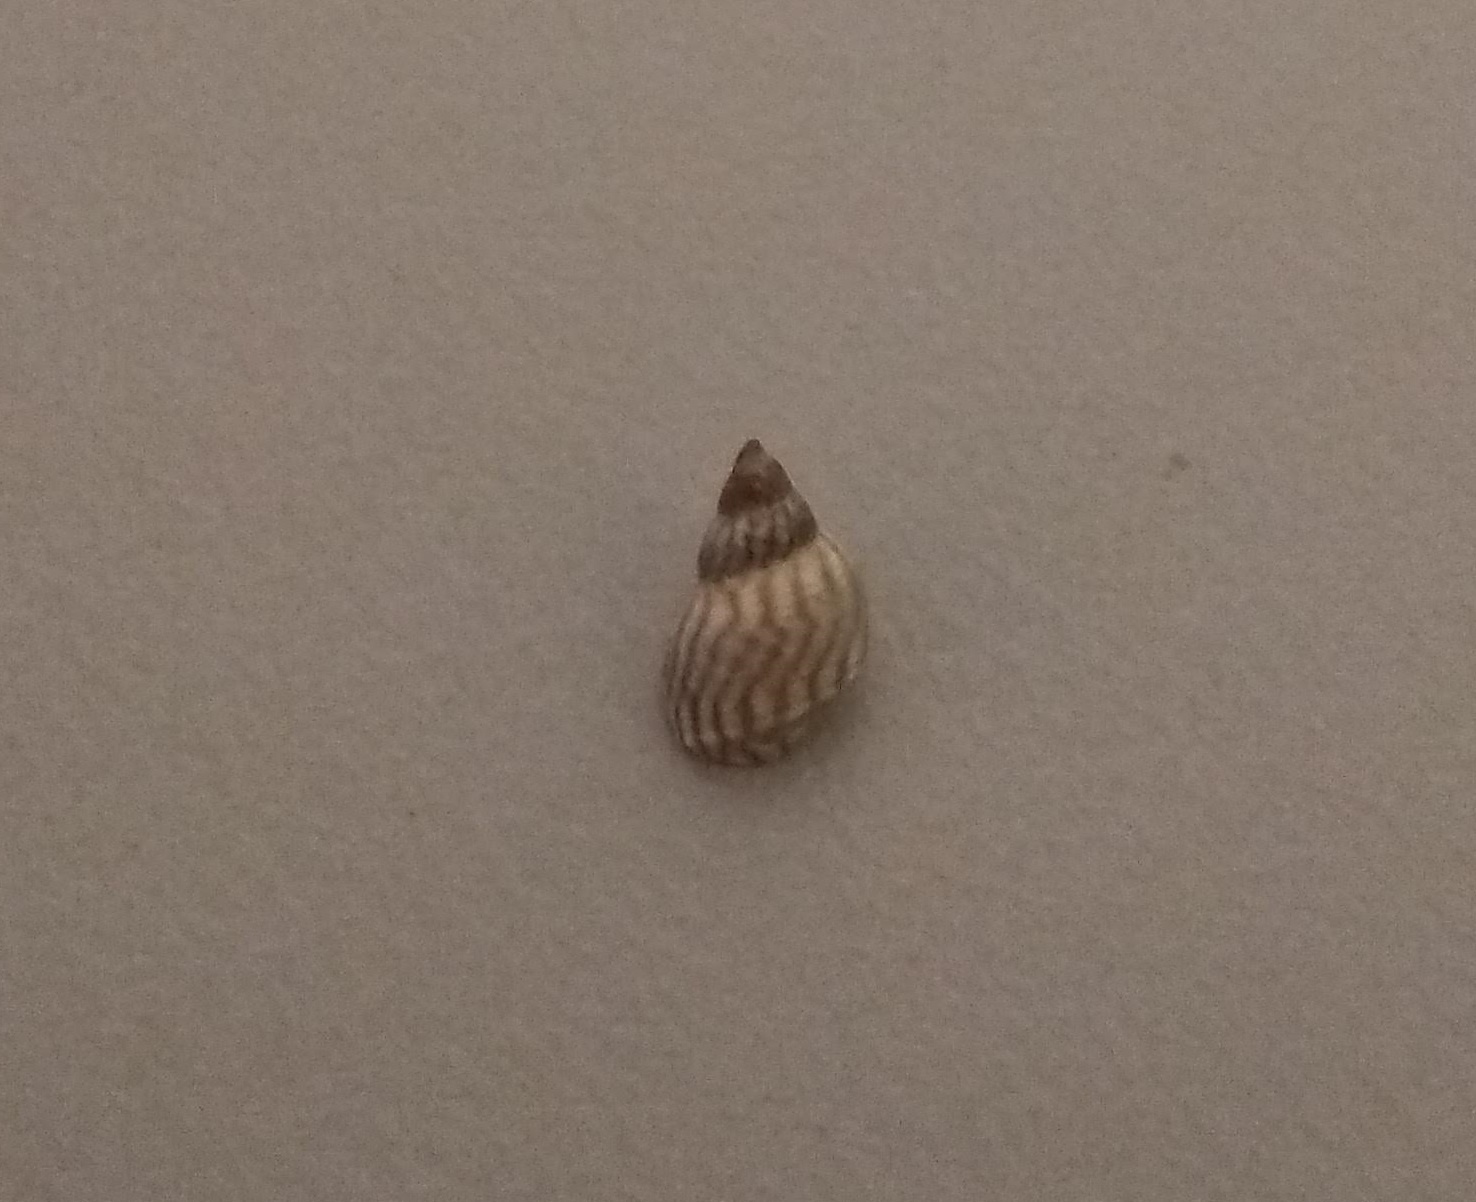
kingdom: Animalia
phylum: Mollusca
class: Gastropoda
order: Littorinimorpha
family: Littorinidae
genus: Echinolittorina
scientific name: Echinolittorina lineolata
